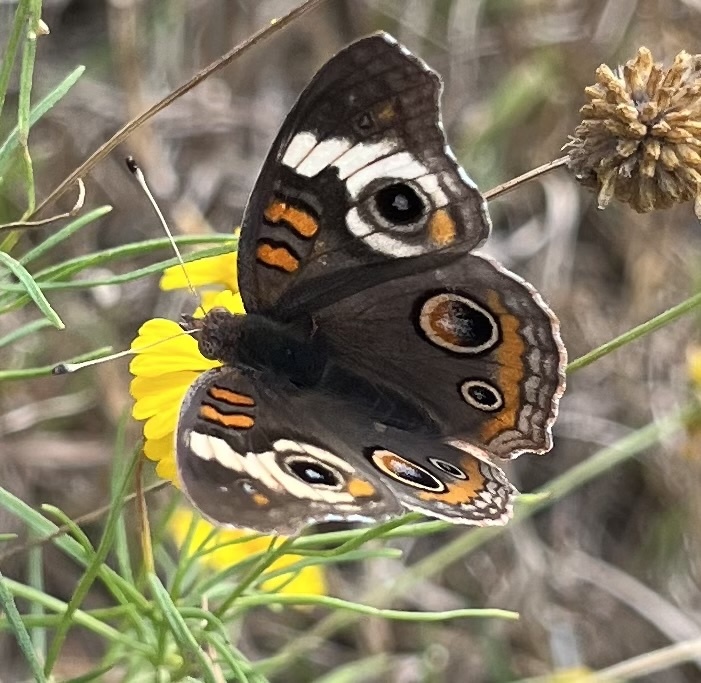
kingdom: Animalia
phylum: Arthropoda
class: Insecta
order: Lepidoptera
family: Nymphalidae
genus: Junonia
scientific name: Junonia coenia
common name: Common buckeye
